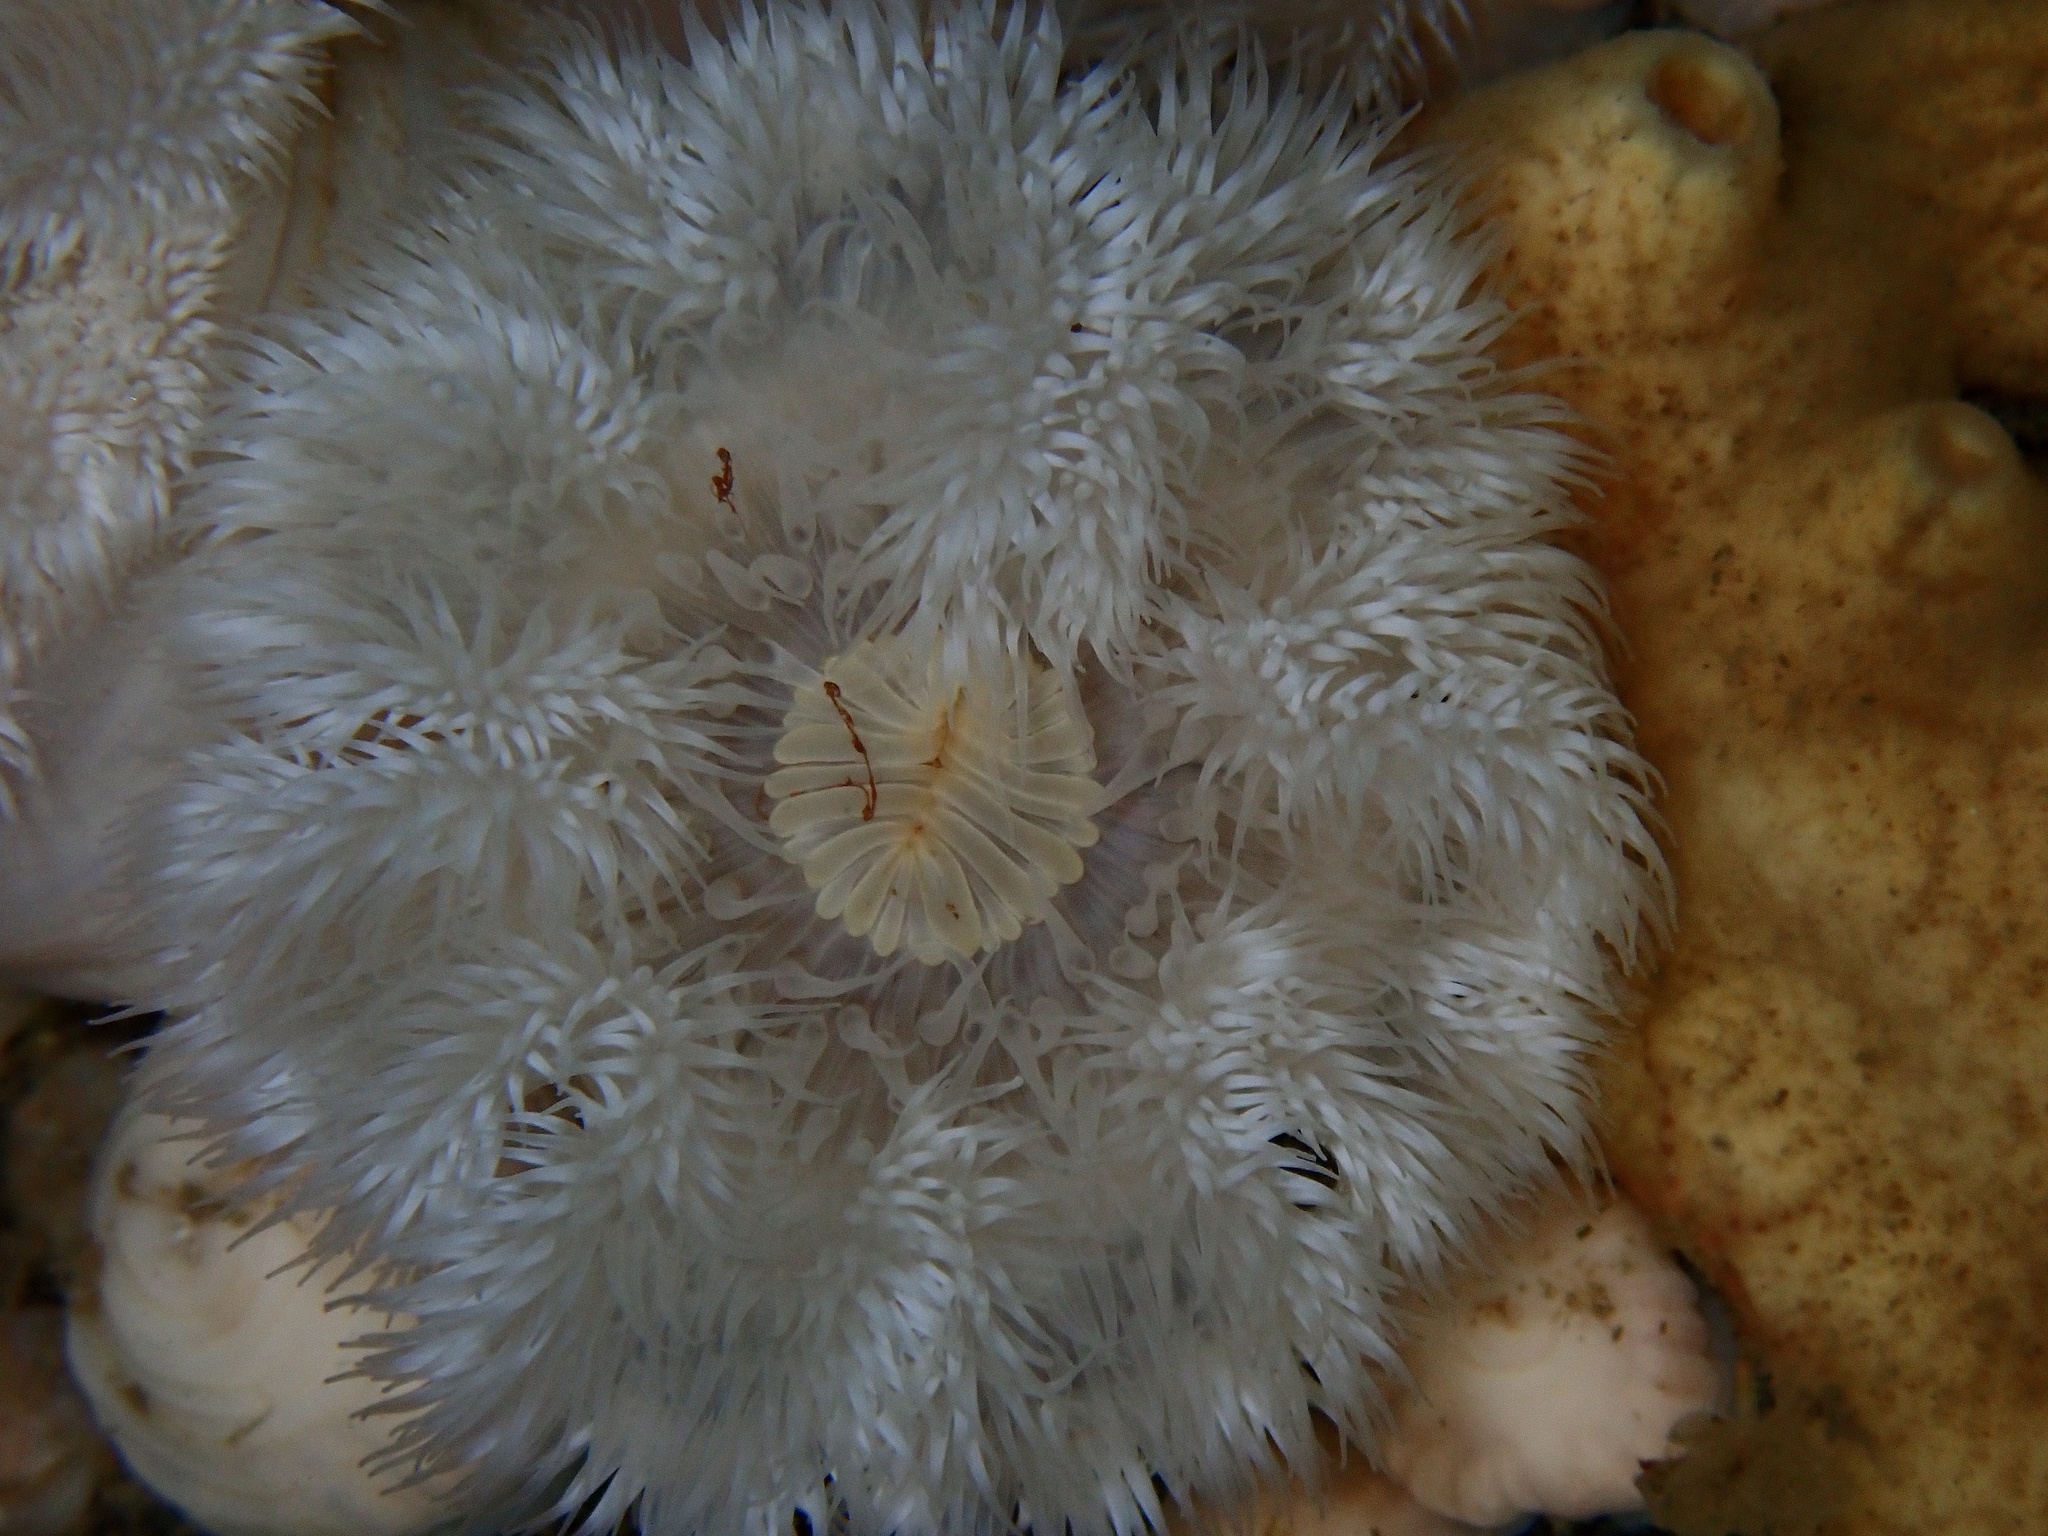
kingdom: Animalia
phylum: Cnidaria
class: Anthozoa
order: Actiniaria
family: Metridiidae
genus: Metridium
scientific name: Metridium senile
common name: Clonal plumose anemone
